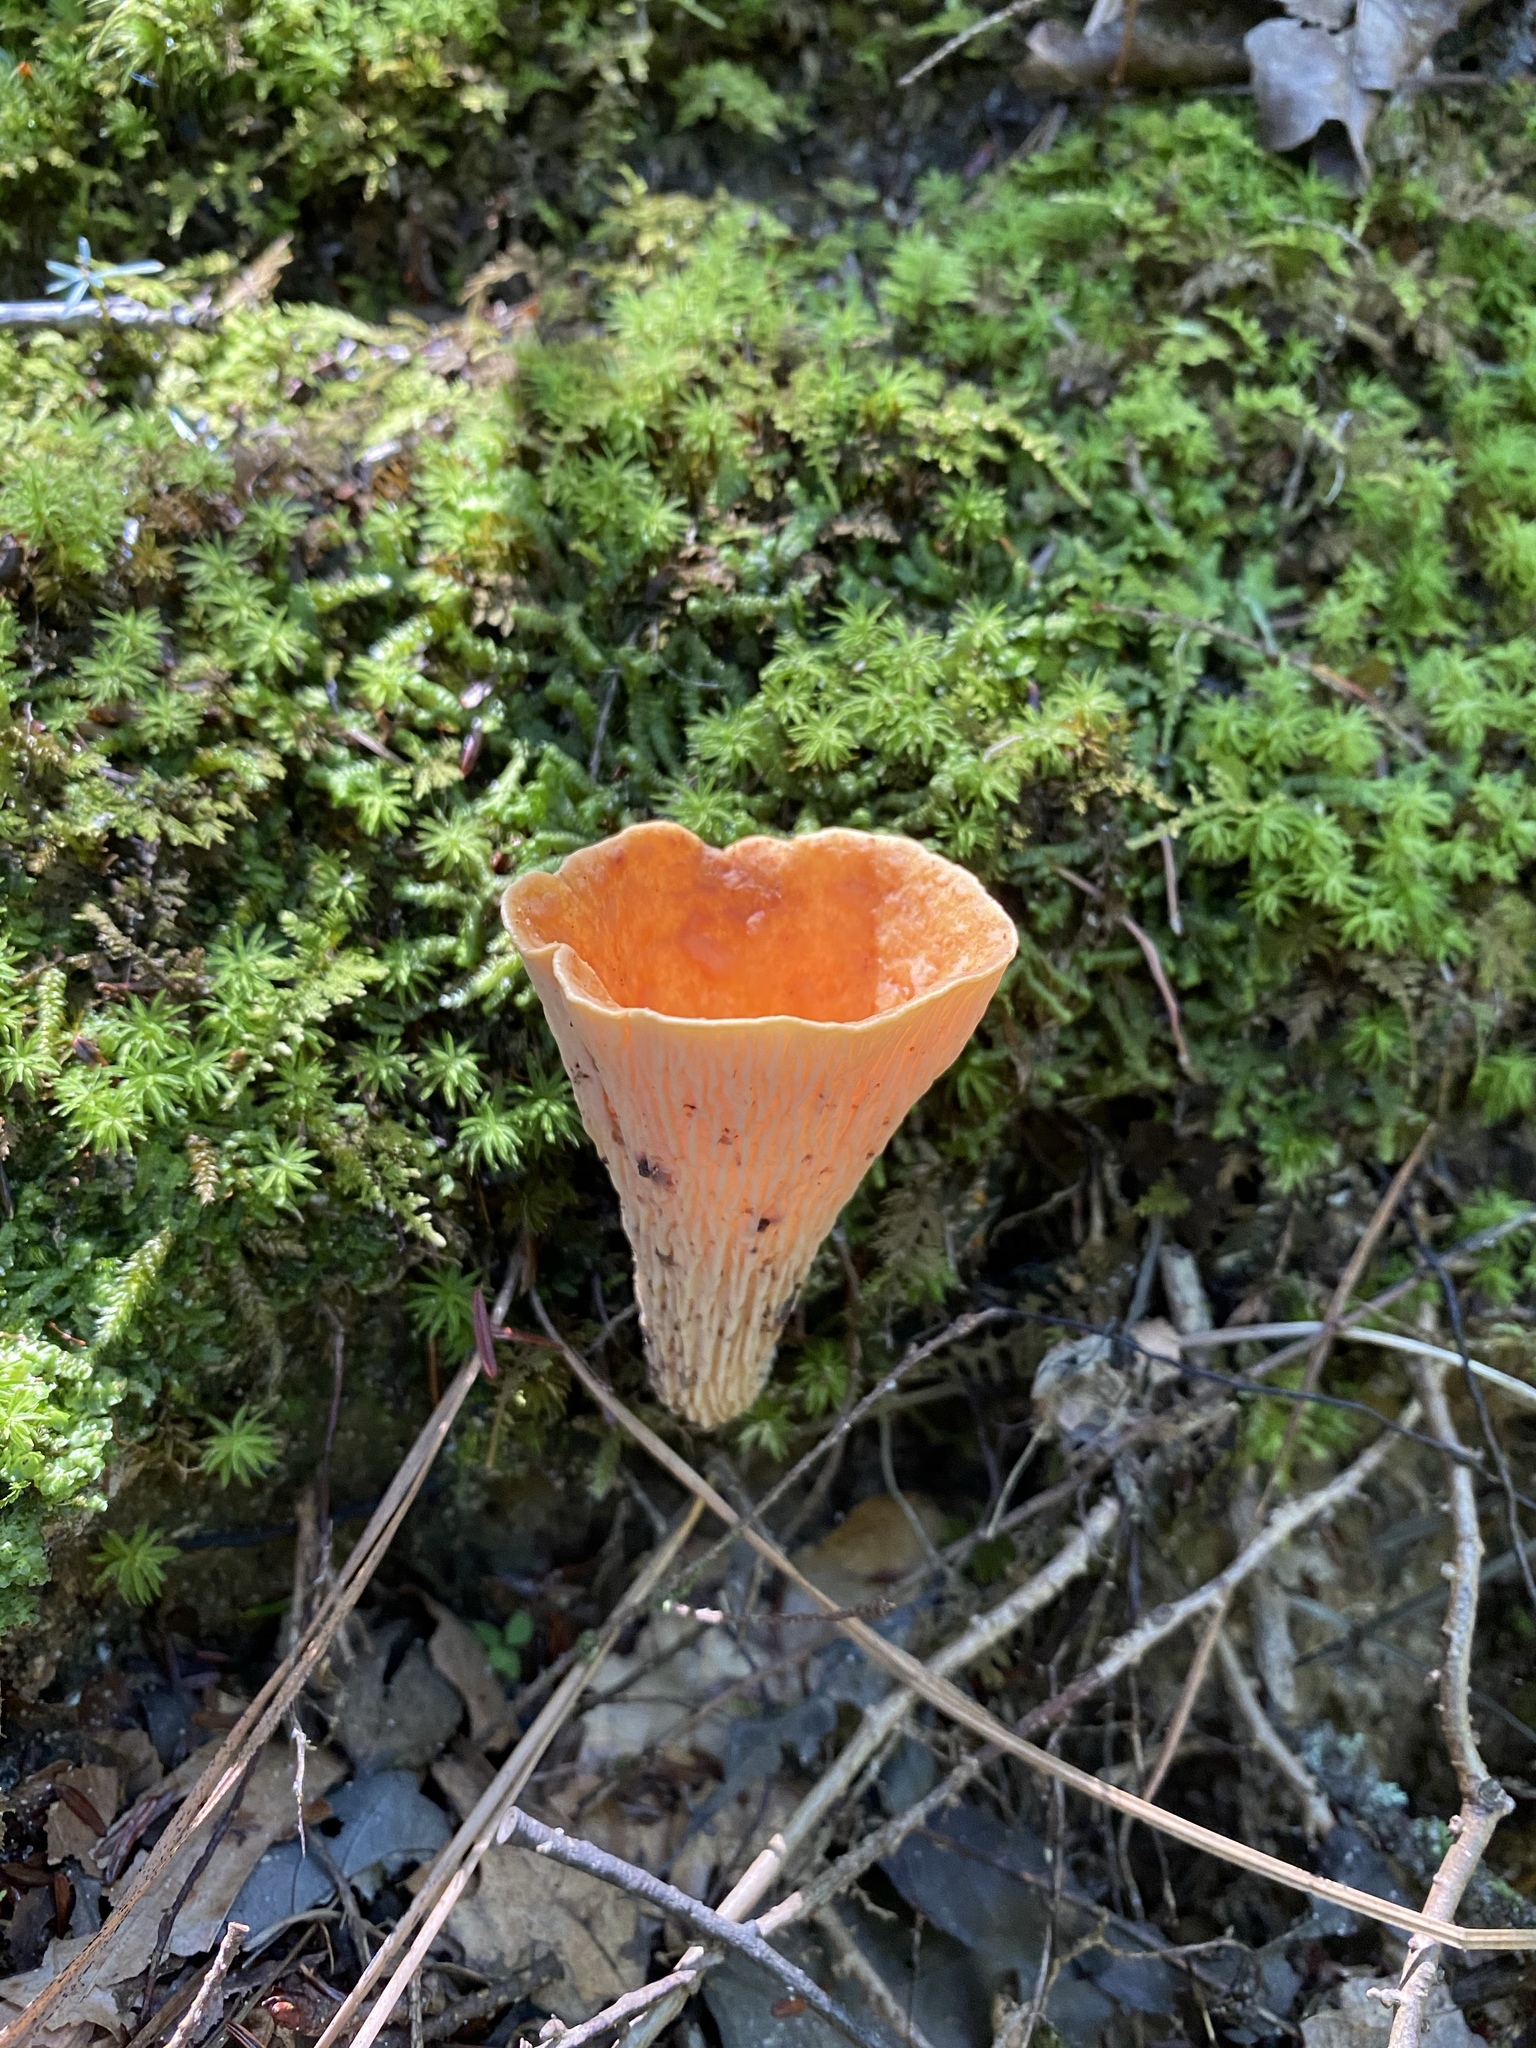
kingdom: Fungi
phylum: Basidiomycota
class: Agaricomycetes
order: Gomphales
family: Gomphaceae
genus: Turbinellus
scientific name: Turbinellus floccosus
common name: Scaly chanterelle
